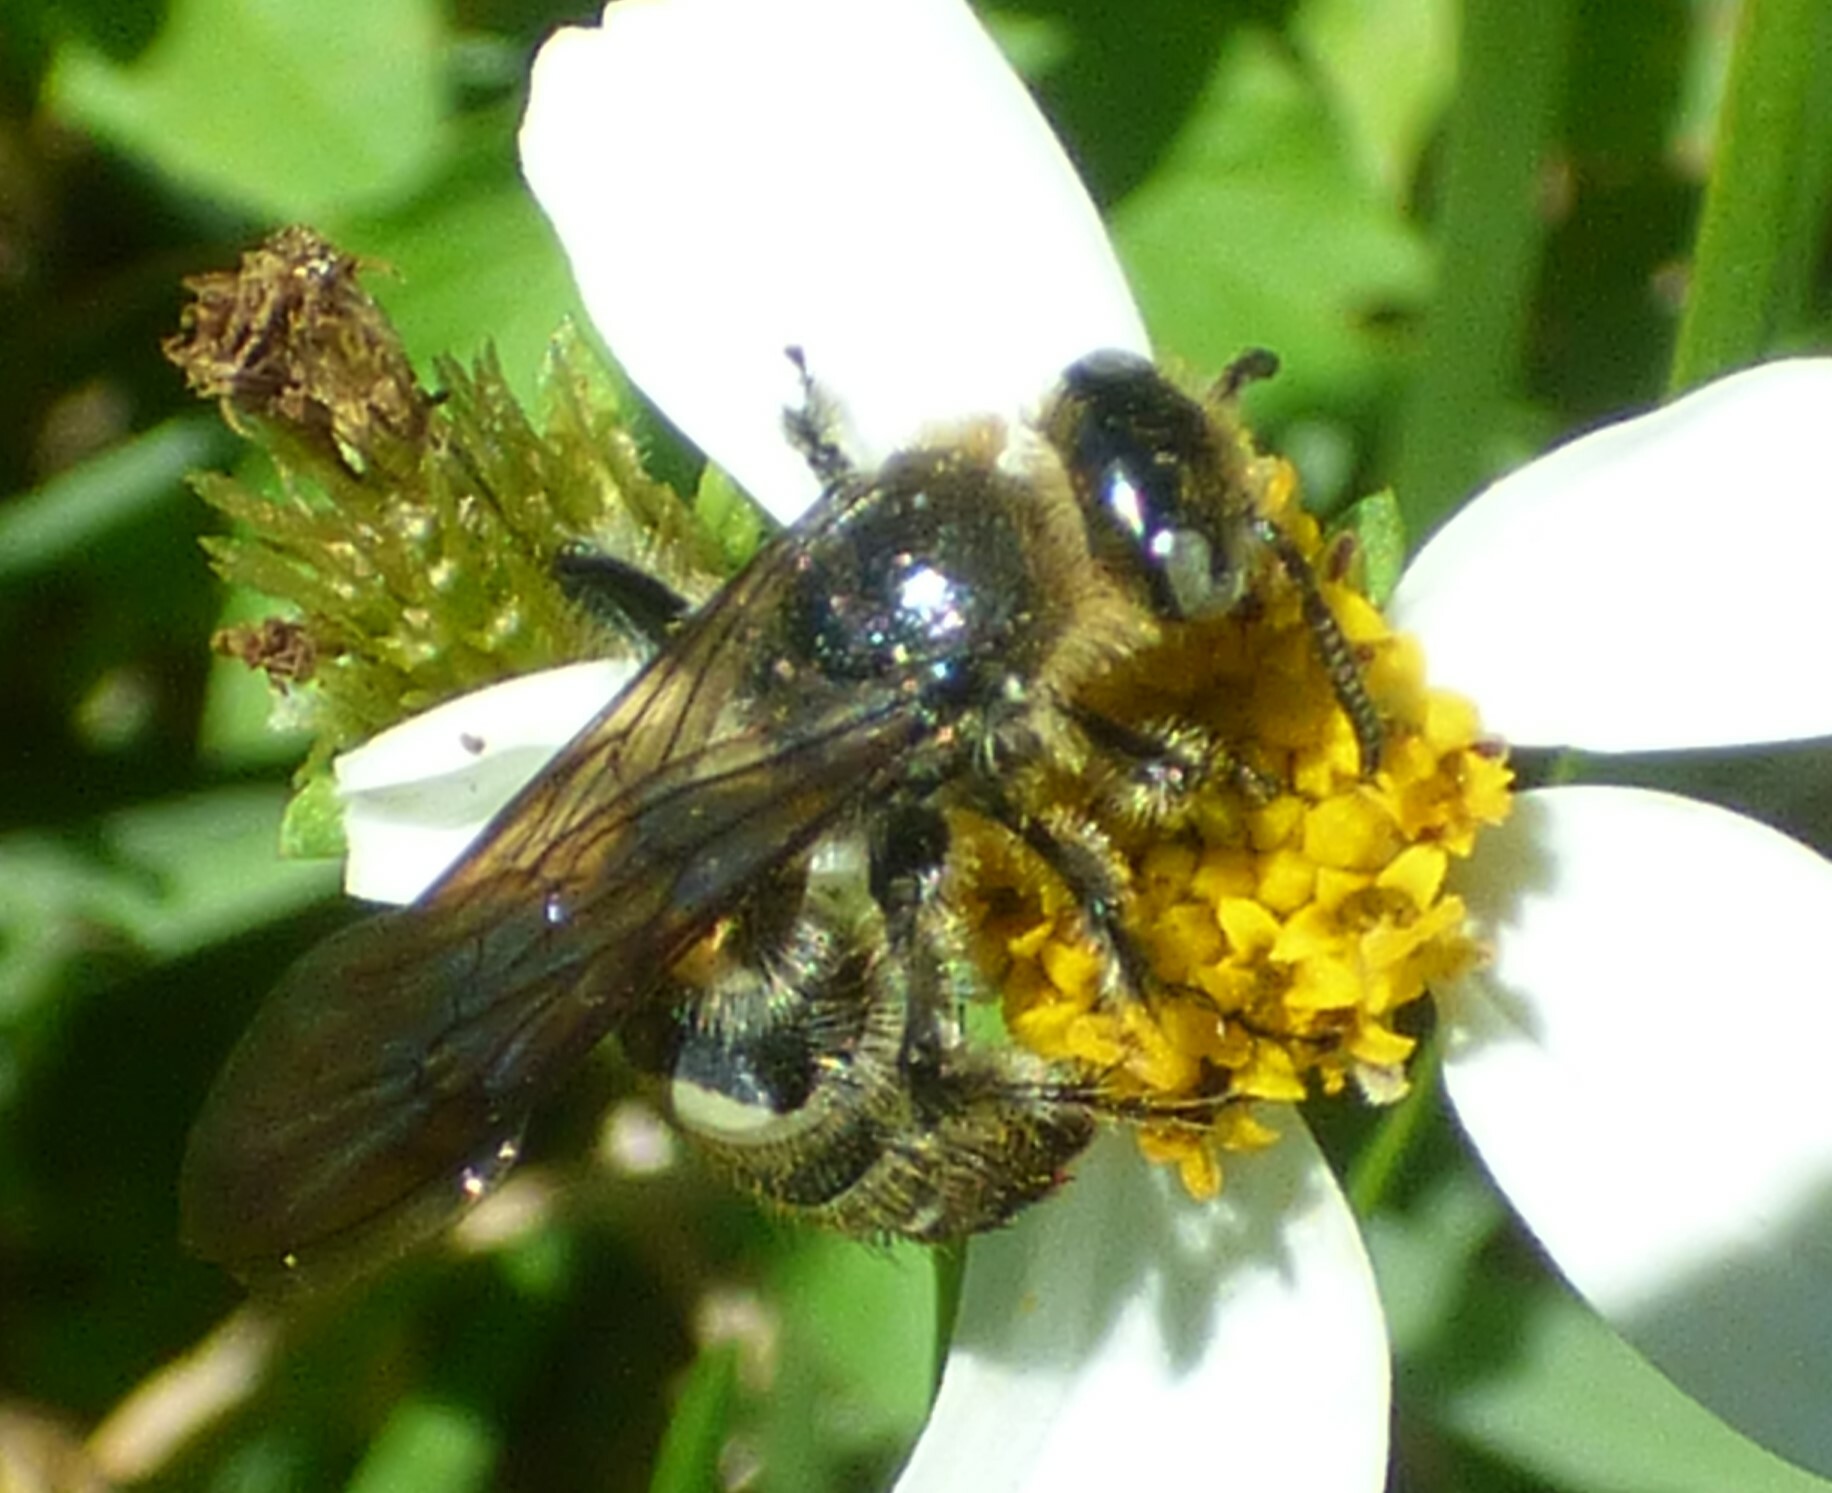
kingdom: Animalia
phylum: Arthropoda
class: Insecta
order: Hymenoptera
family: Scoliidae
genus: Dielis
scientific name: Dielis
